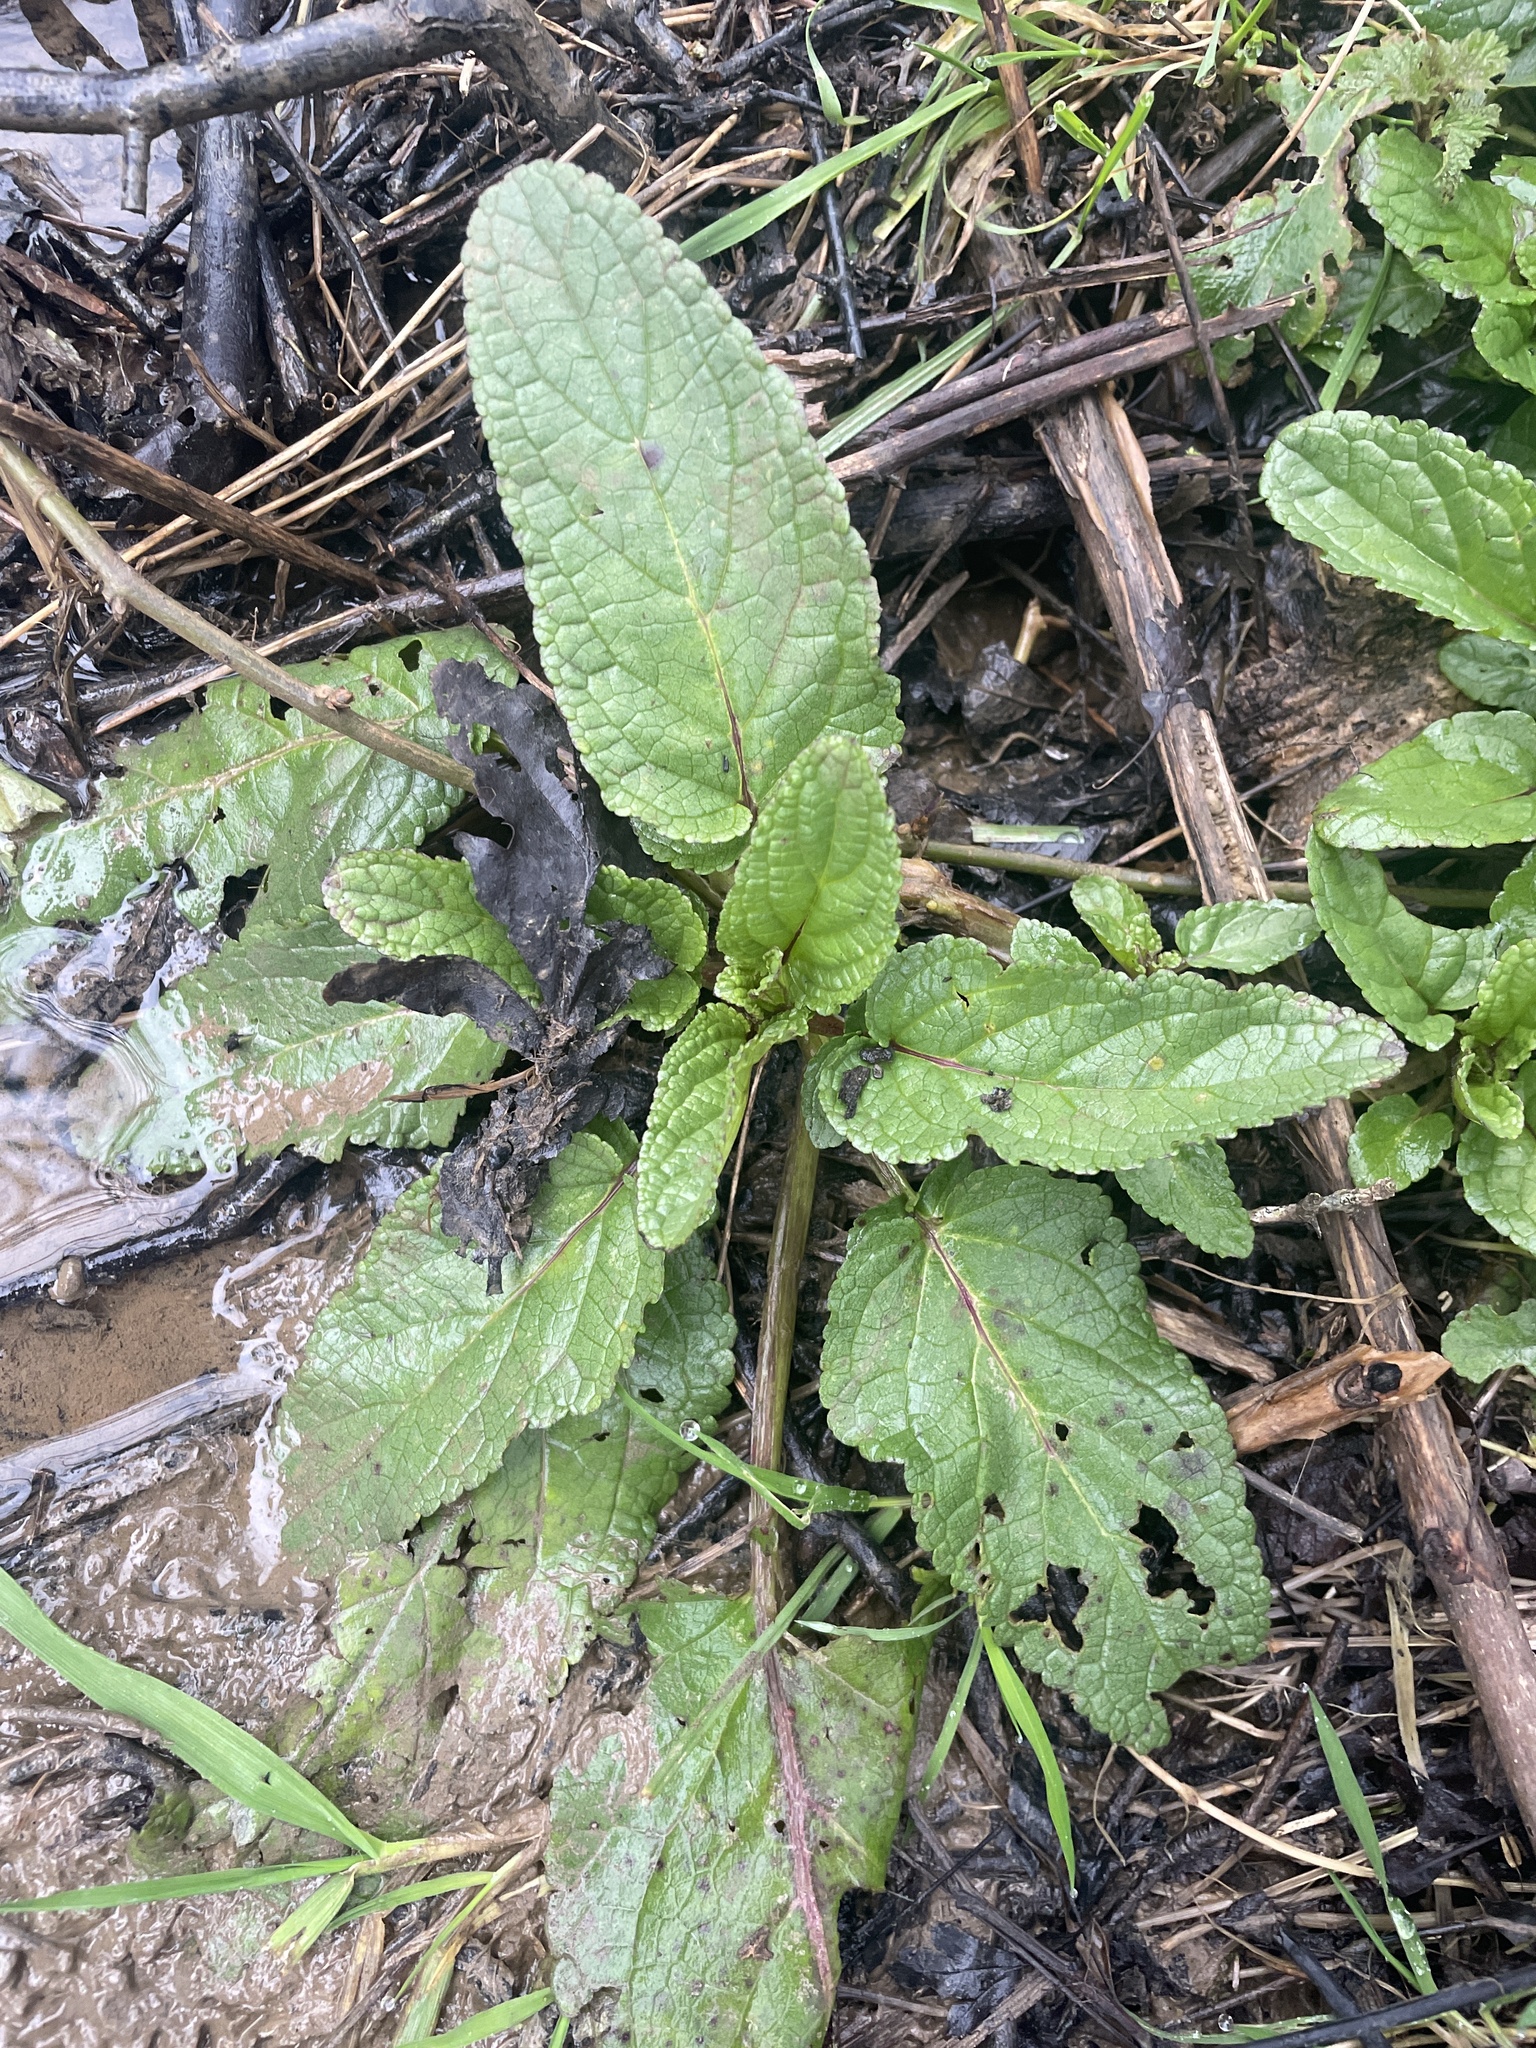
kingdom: Plantae
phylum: Tracheophyta
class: Magnoliopsida
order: Lamiales
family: Scrophulariaceae
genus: Scrophularia
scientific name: Scrophularia auriculata
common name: Water betony
